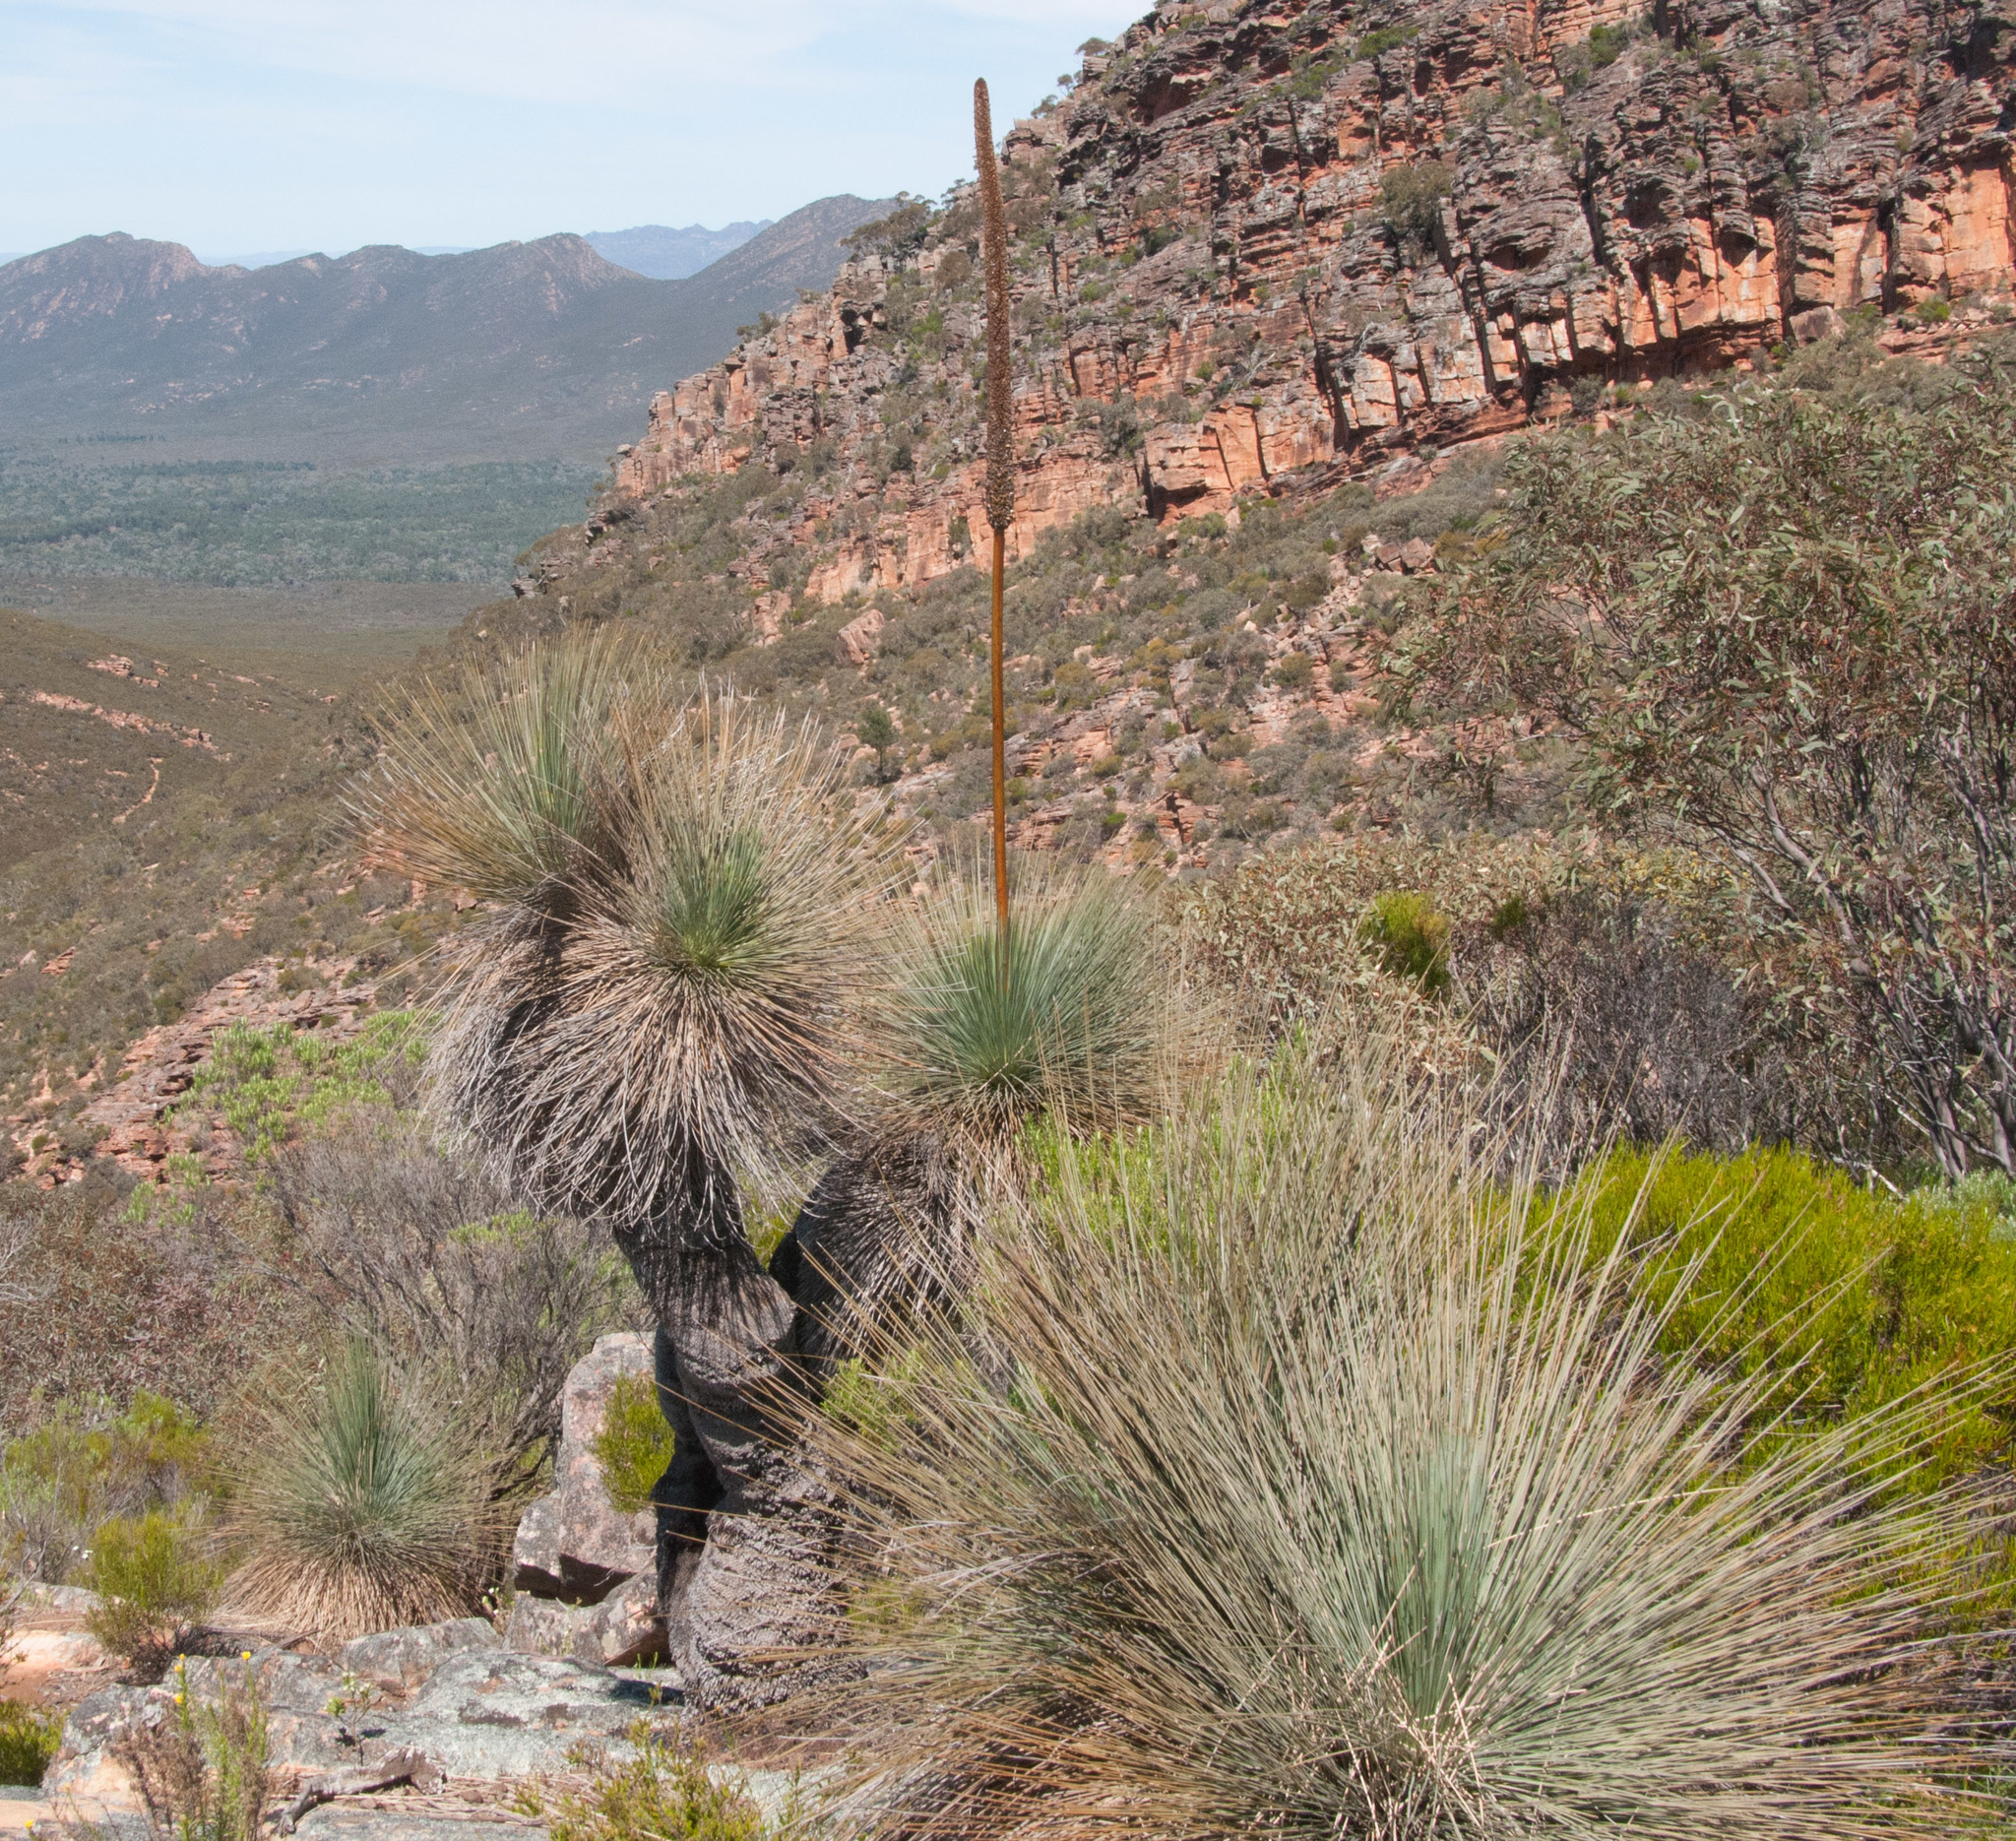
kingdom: Plantae
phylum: Tracheophyta
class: Liliopsida
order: Asparagales
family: Asphodelaceae
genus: Xanthorrhoea
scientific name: Xanthorrhoea quadrangulata
